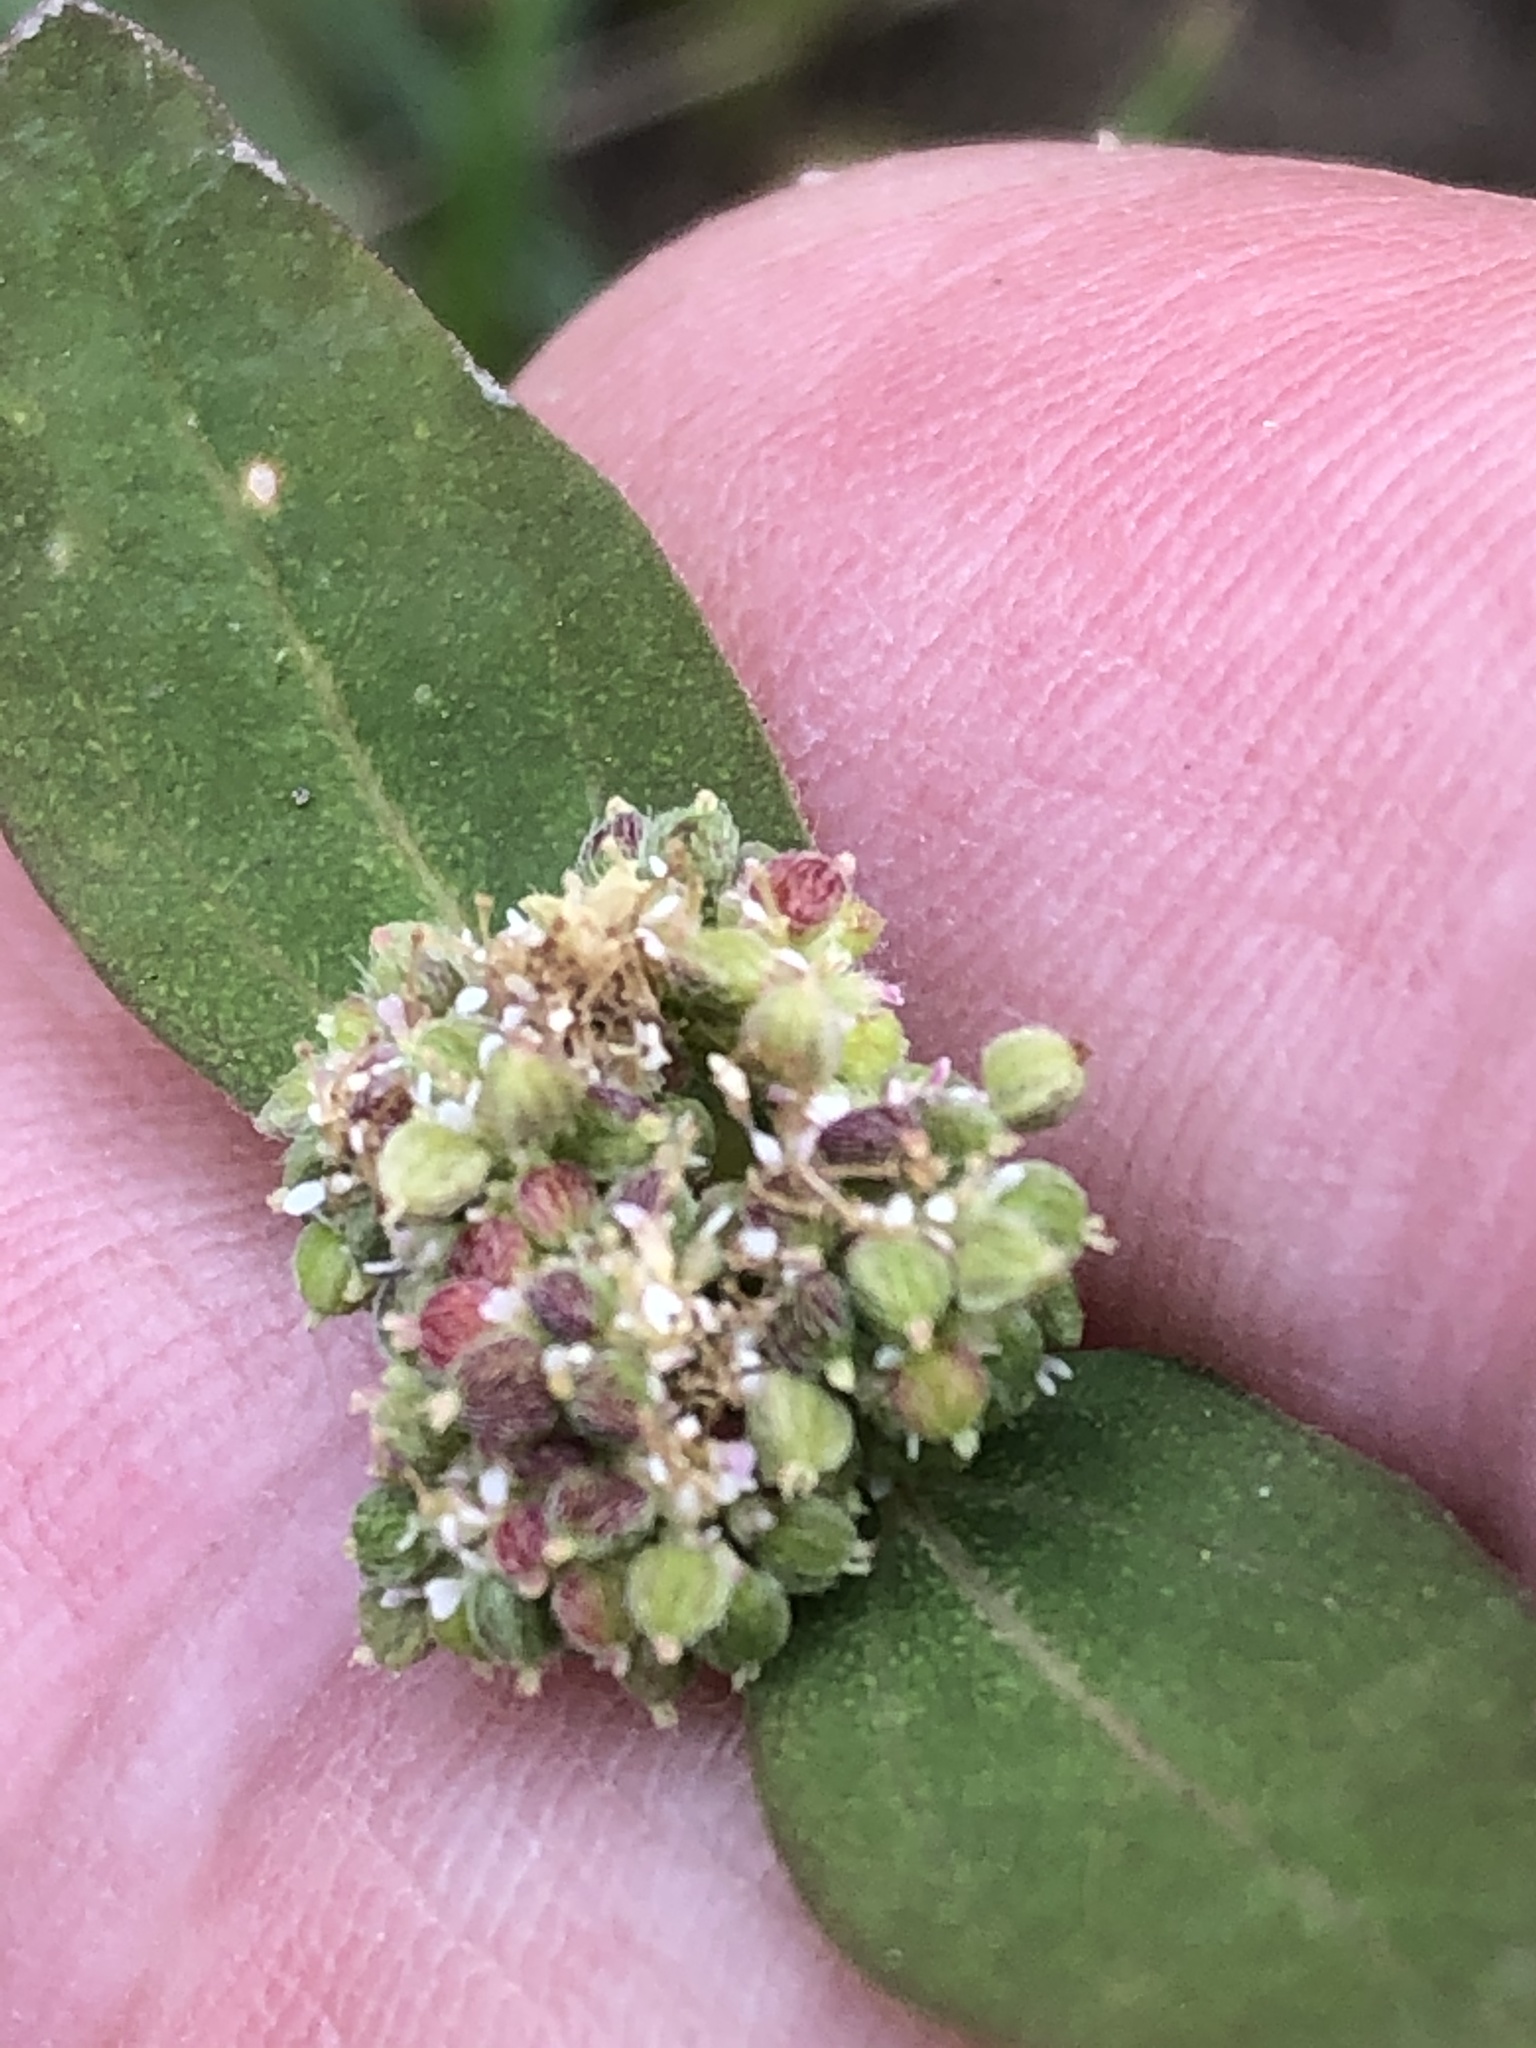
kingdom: Plantae
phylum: Tracheophyta
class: Magnoliopsida
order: Malpighiales
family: Euphorbiaceae
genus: Euphorbia
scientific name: Euphorbia ophthalmica
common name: Florida hammock sandmat
